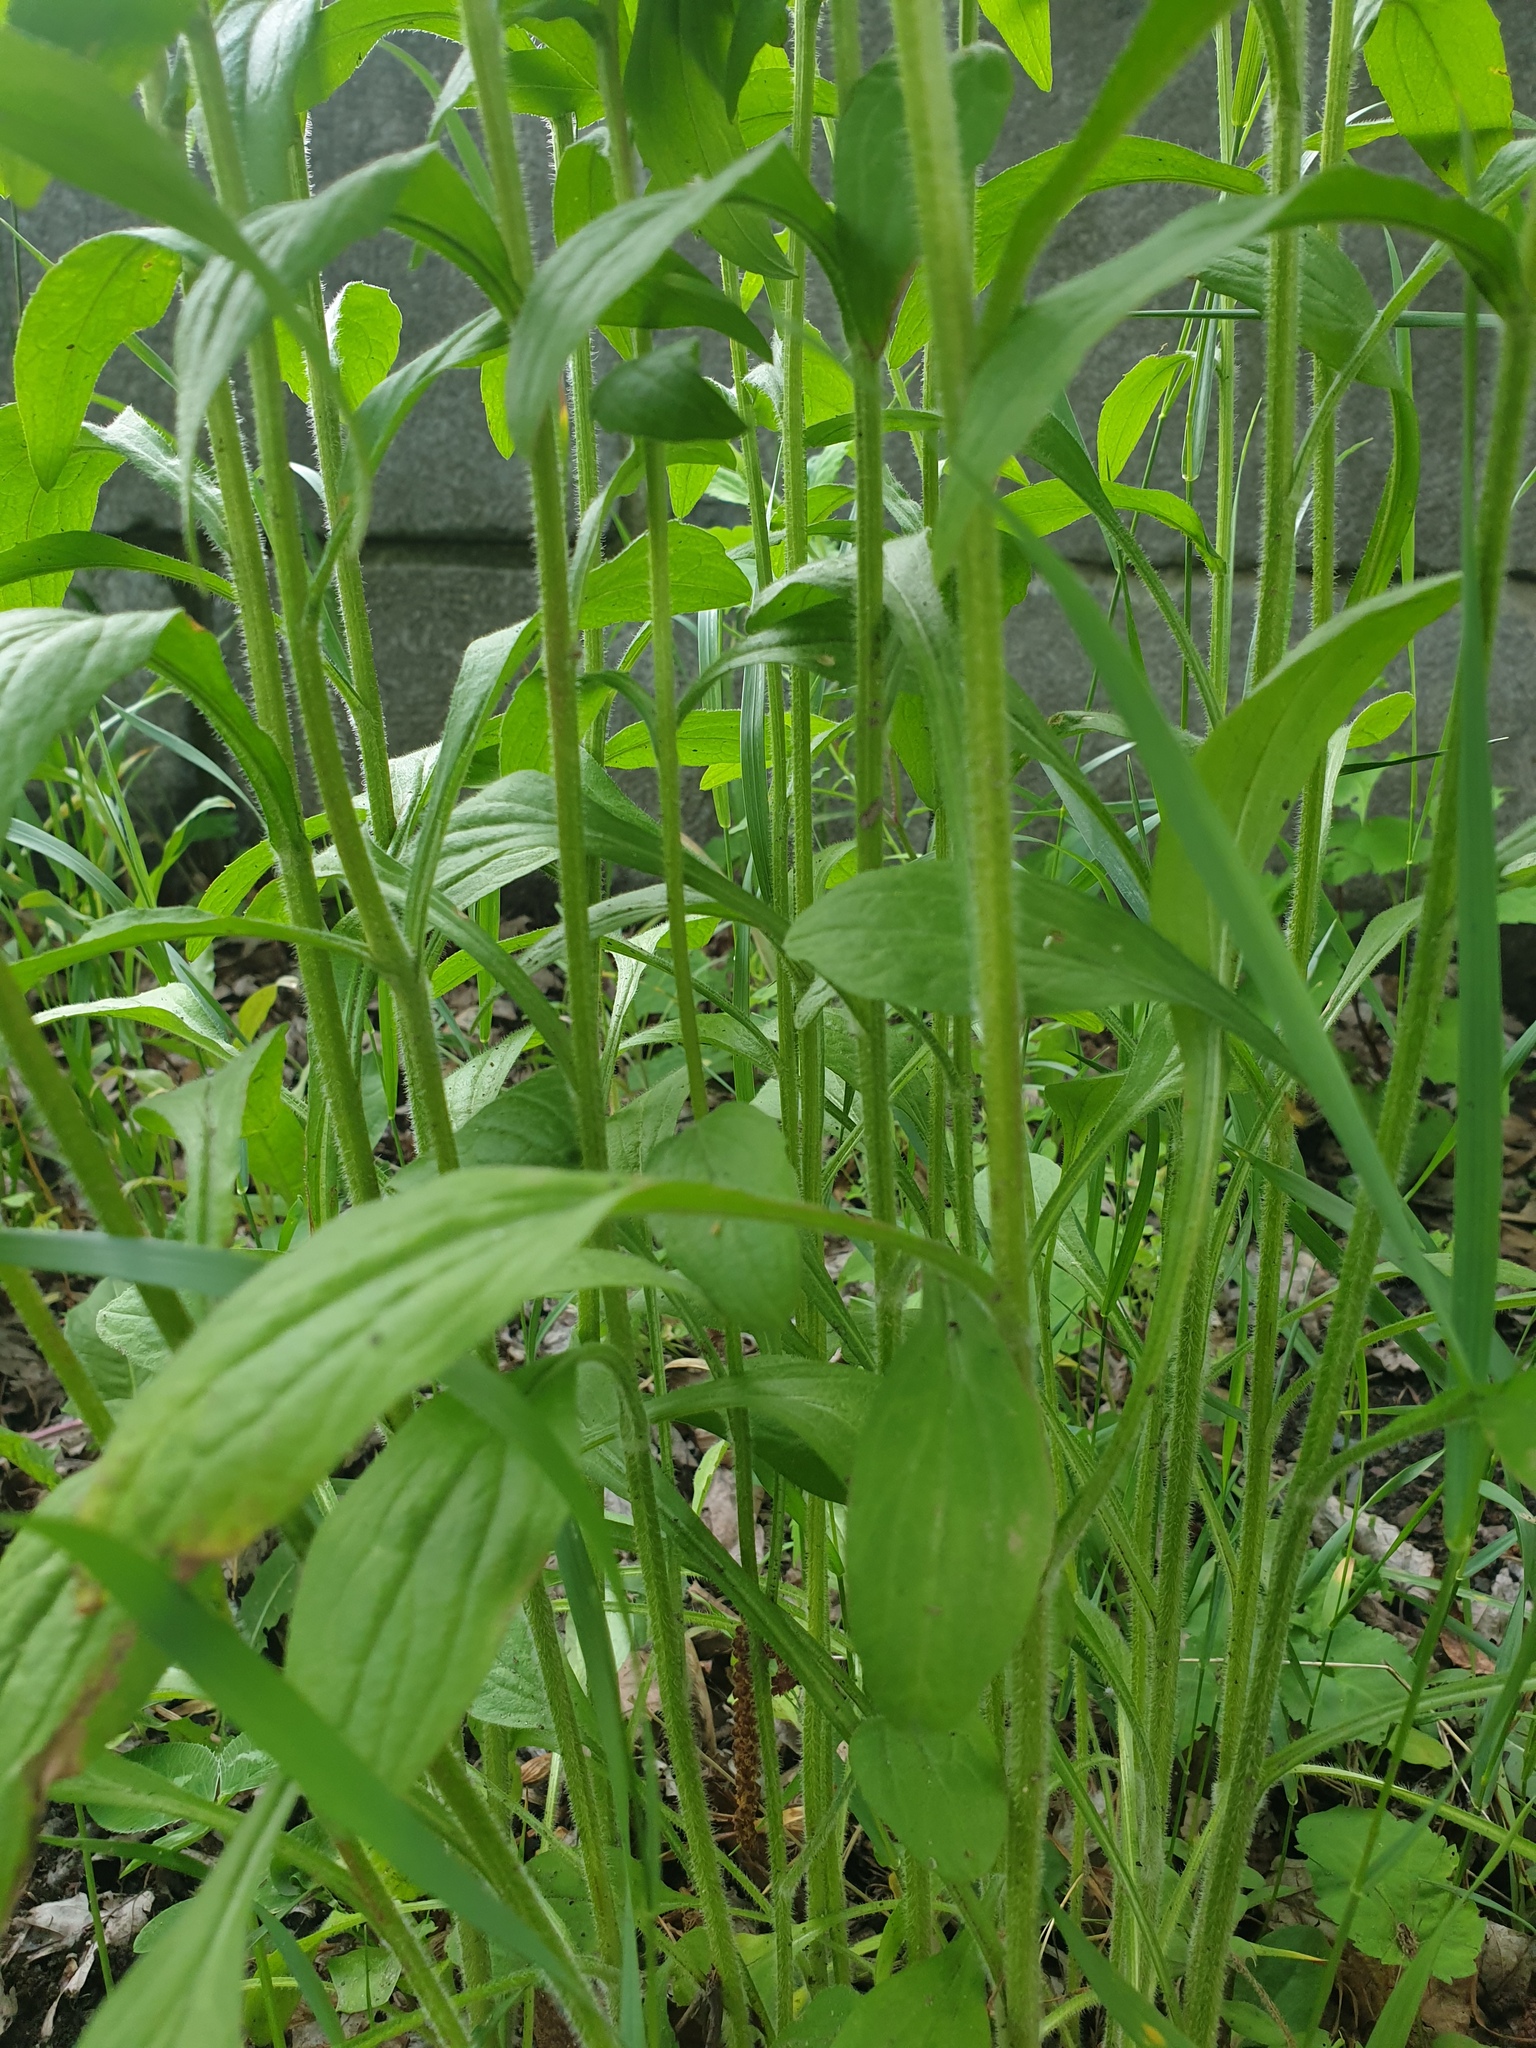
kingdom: Plantae
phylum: Tracheophyta
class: Magnoliopsida
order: Asterales
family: Asteraceae
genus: Erigeron
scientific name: Erigeron annuus
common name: Tall fleabane
